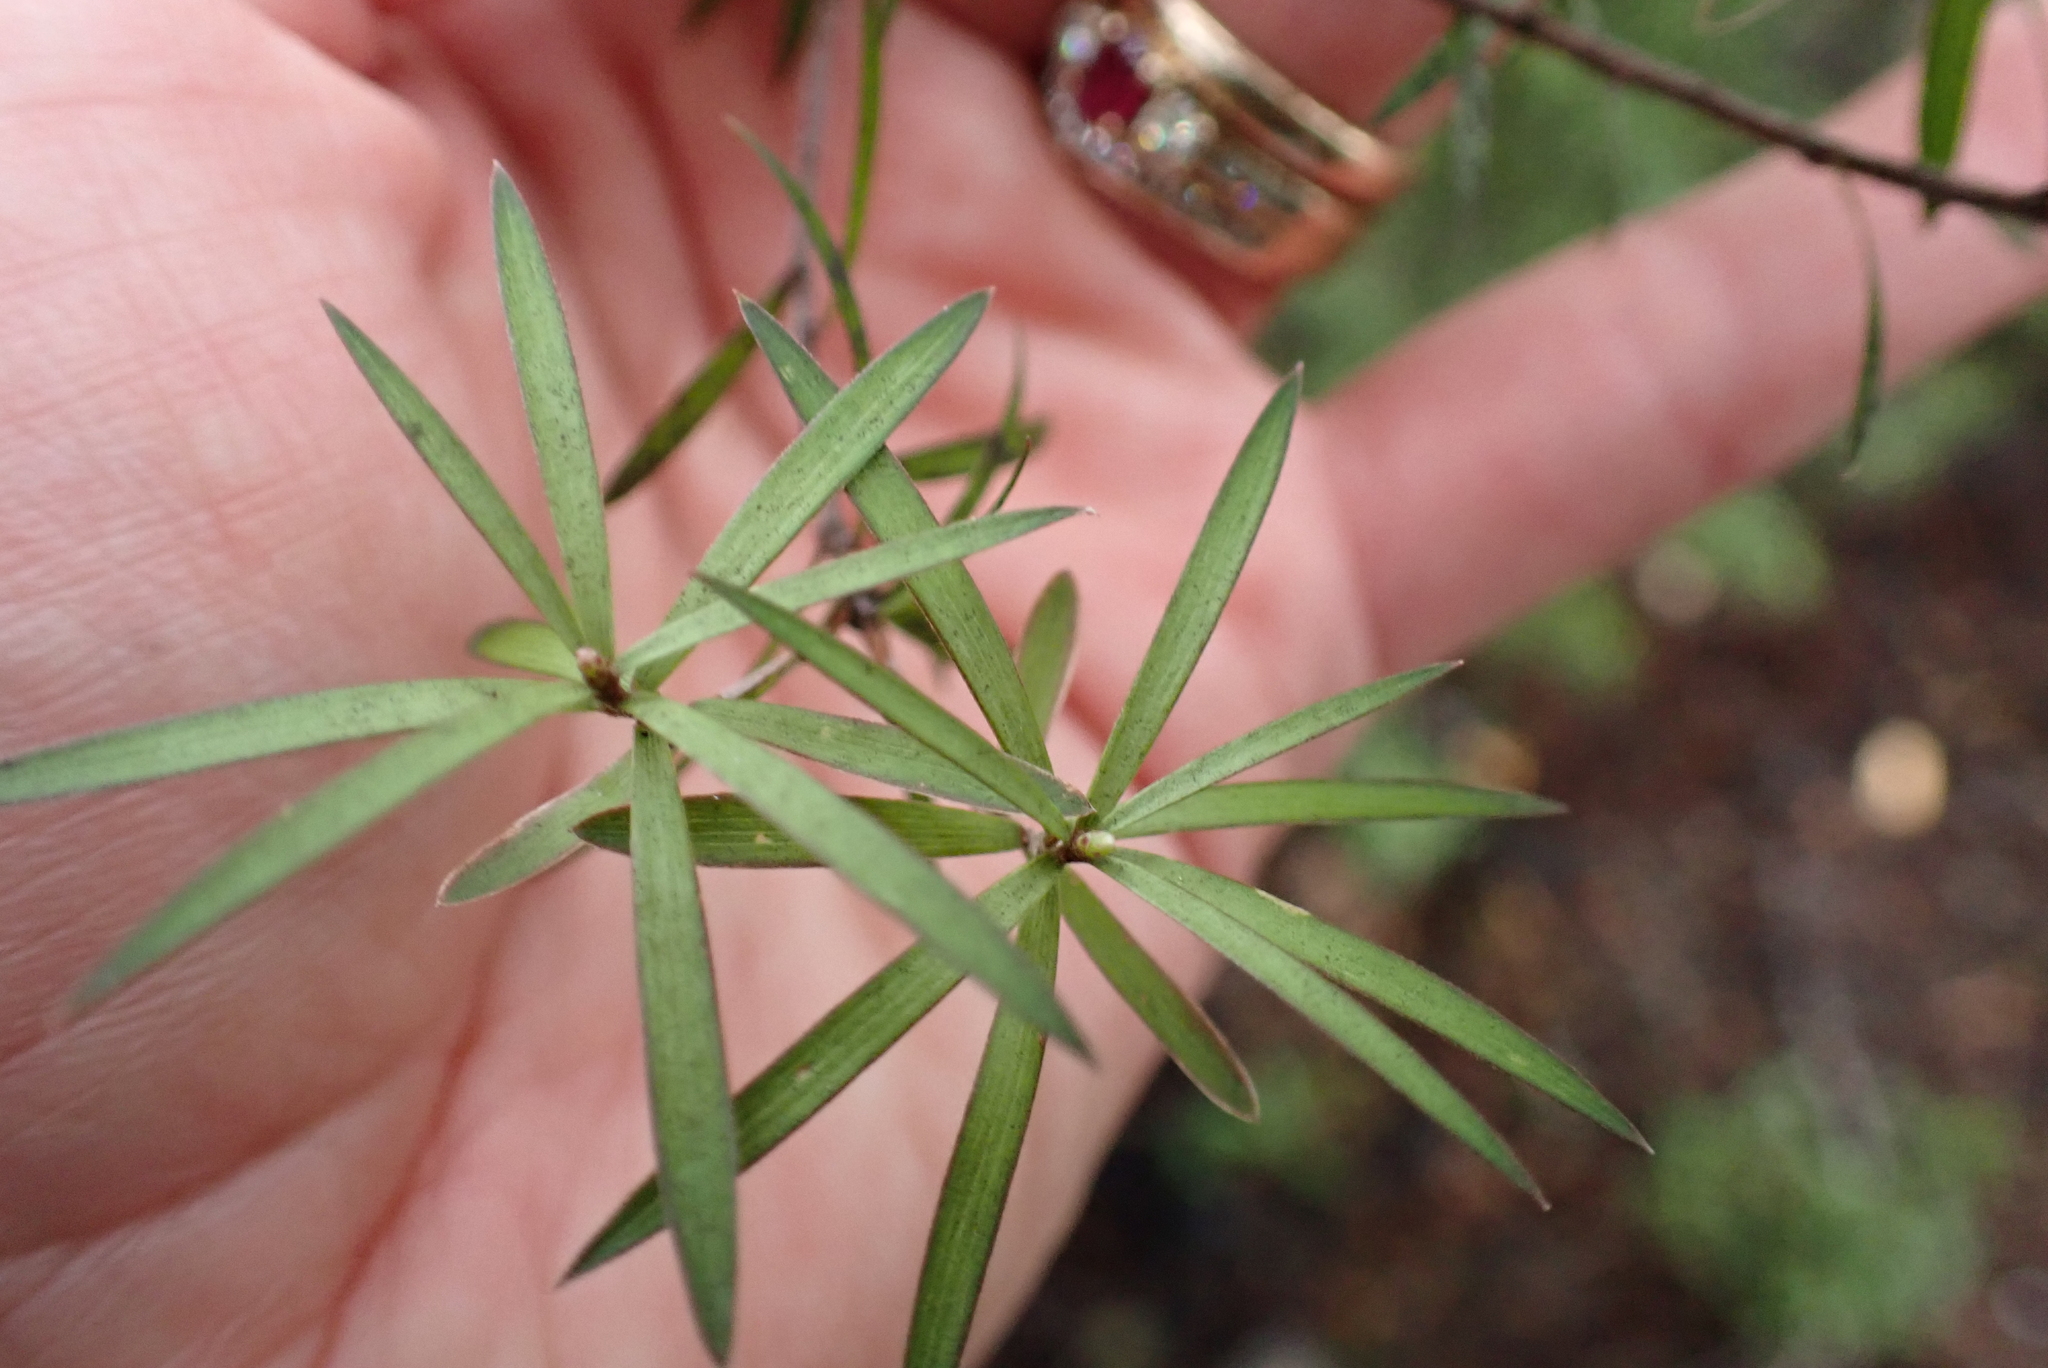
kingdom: Plantae
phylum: Tracheophyta
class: Magnoliopsida
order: Ericales
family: Ericaceae
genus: Leucopogon
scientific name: Leucopogon fasciculatus
